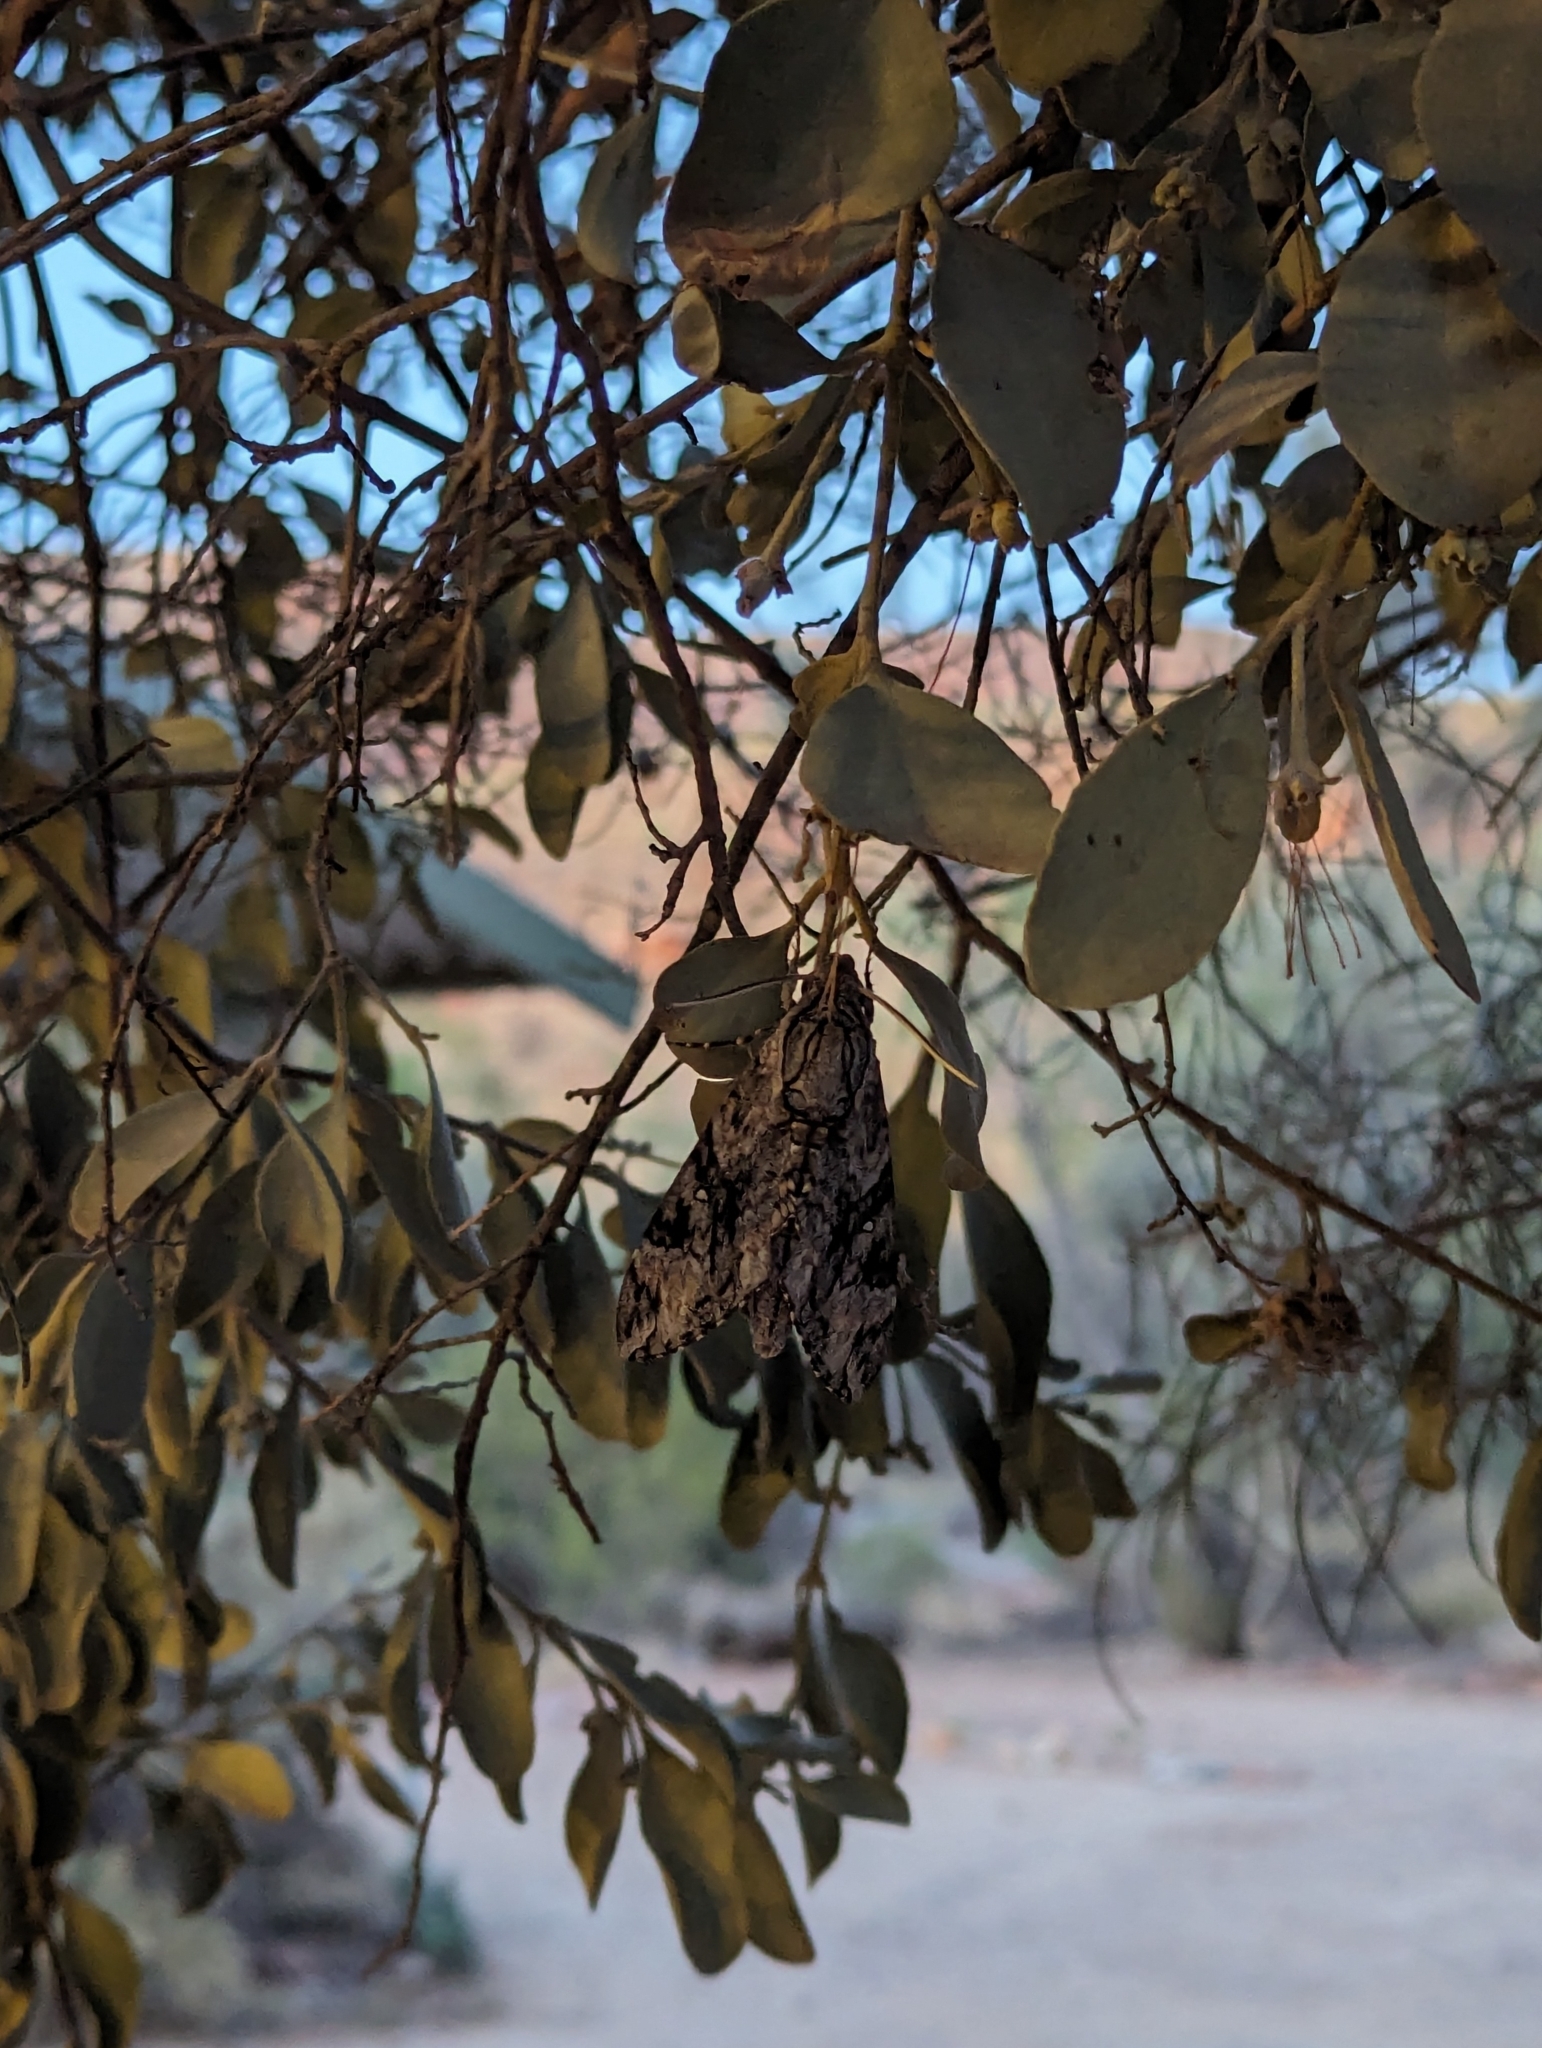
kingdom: Animalia
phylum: Arthropoda
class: Insecta
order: Lepidoptera
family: Sphingidae
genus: Agrius
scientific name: Agrius godarti
